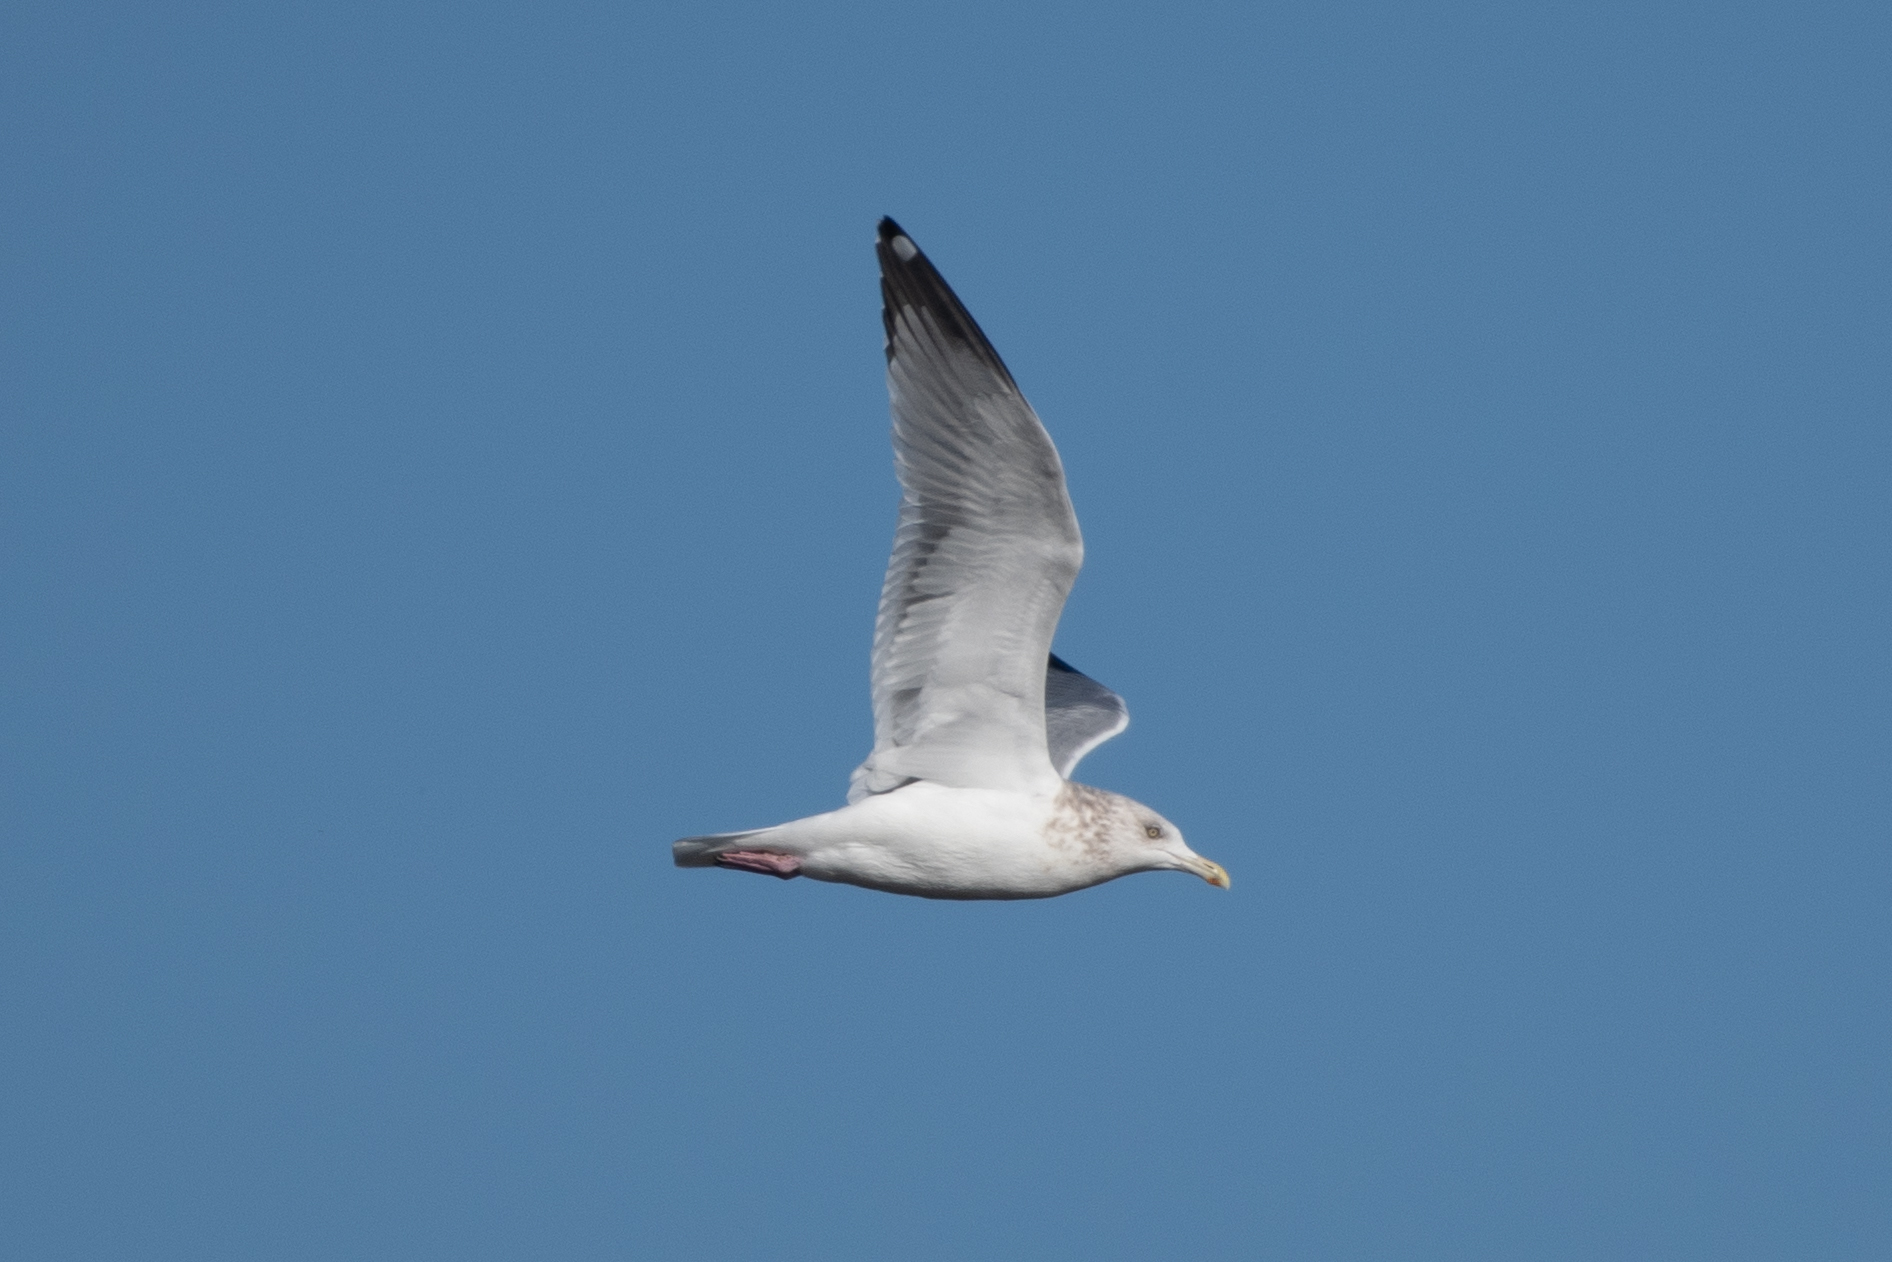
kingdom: Animalia
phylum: Chordata
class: Aves
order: Charadriiformes
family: Laridae
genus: Larus
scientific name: Larus argentatus
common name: Herring gull
